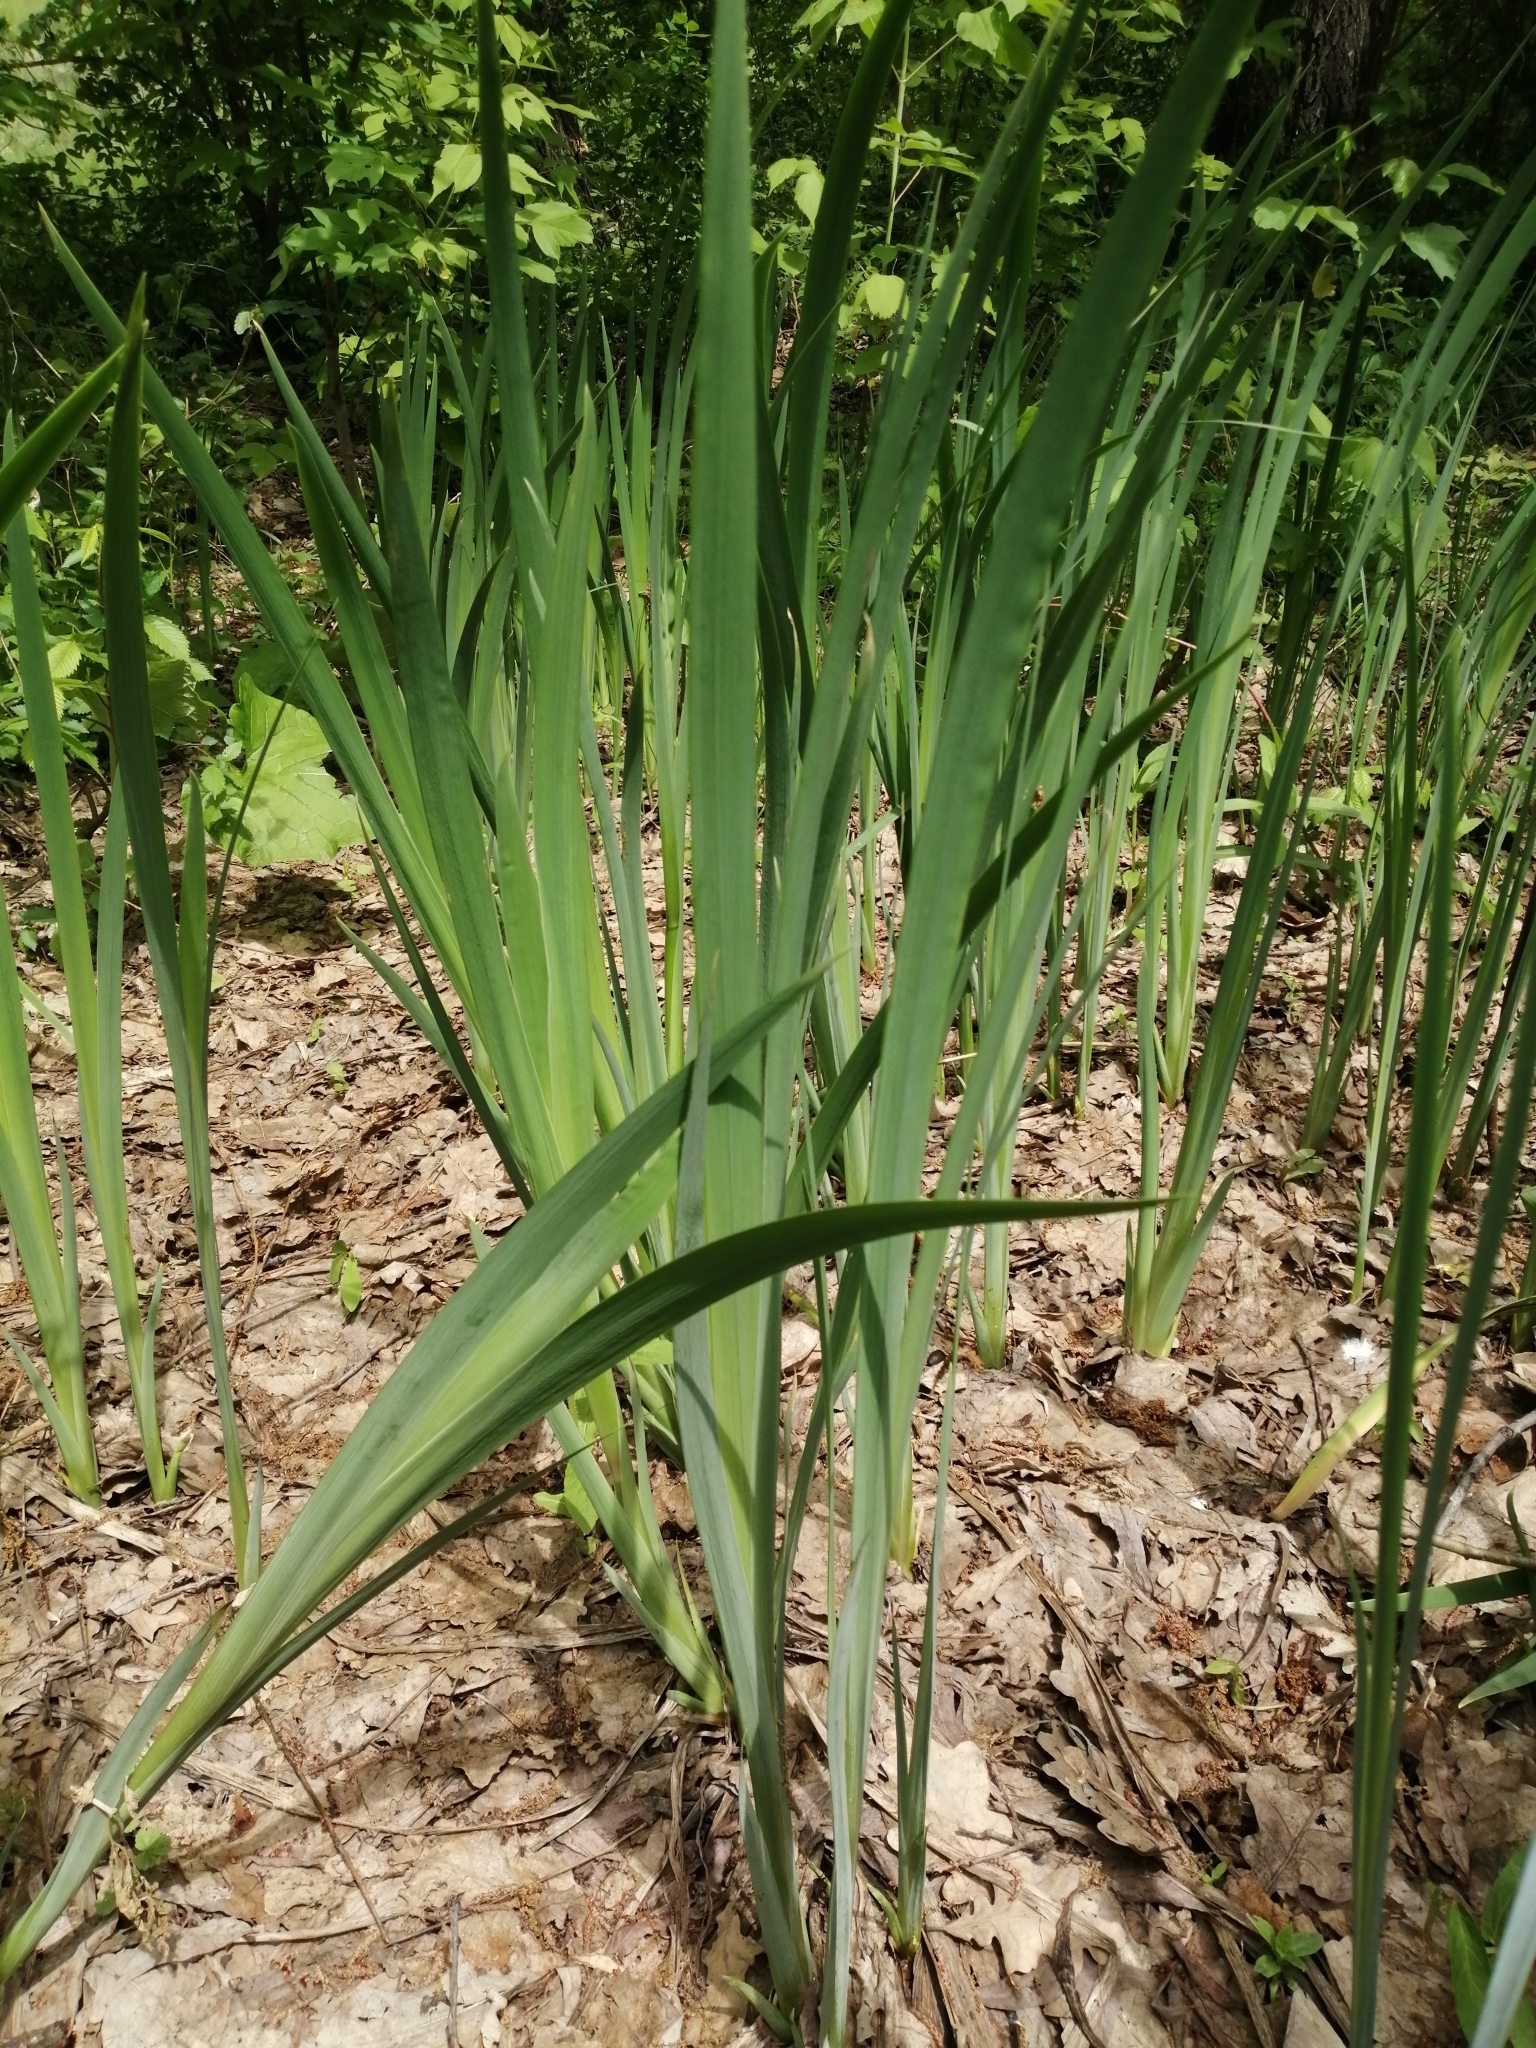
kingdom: Plantae
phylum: Tracheophyta
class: Liliopsida
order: Asparagales
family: Iridaceae
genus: Iris
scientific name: Iris pseudacorus
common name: Yellow flag
